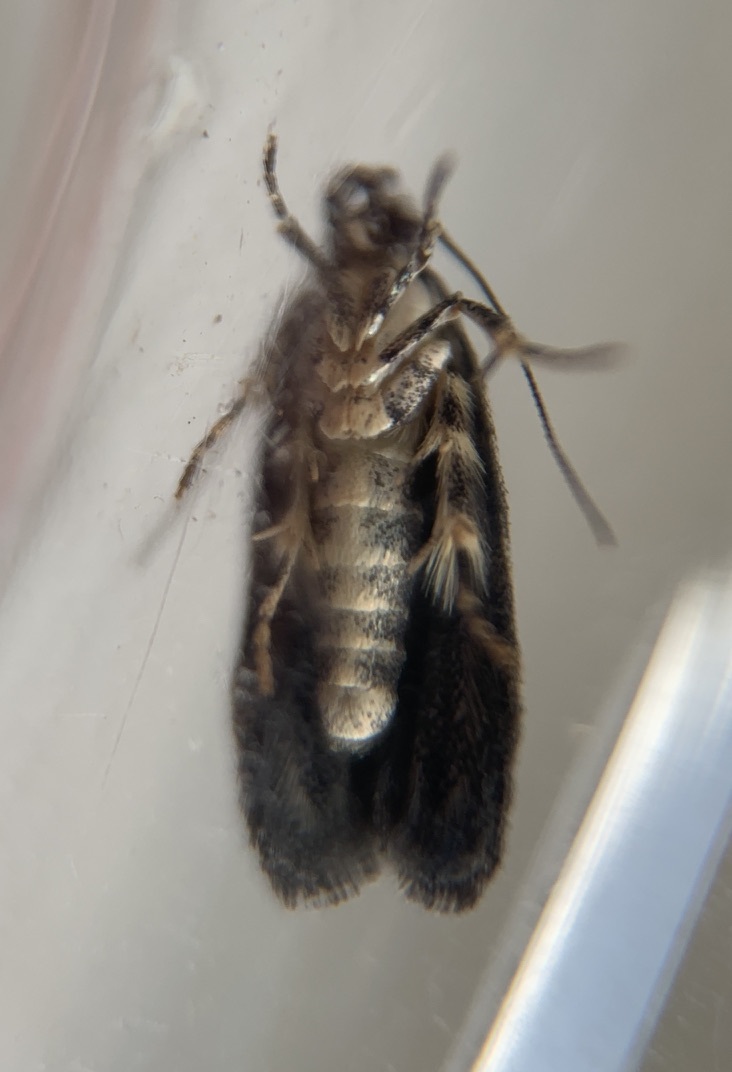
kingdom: Animalia
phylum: Arthropoda
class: Insecta
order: Lepidoptera
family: Gelechiidae
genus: Pubitelphusa
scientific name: Pubitelphusa latifasciella
